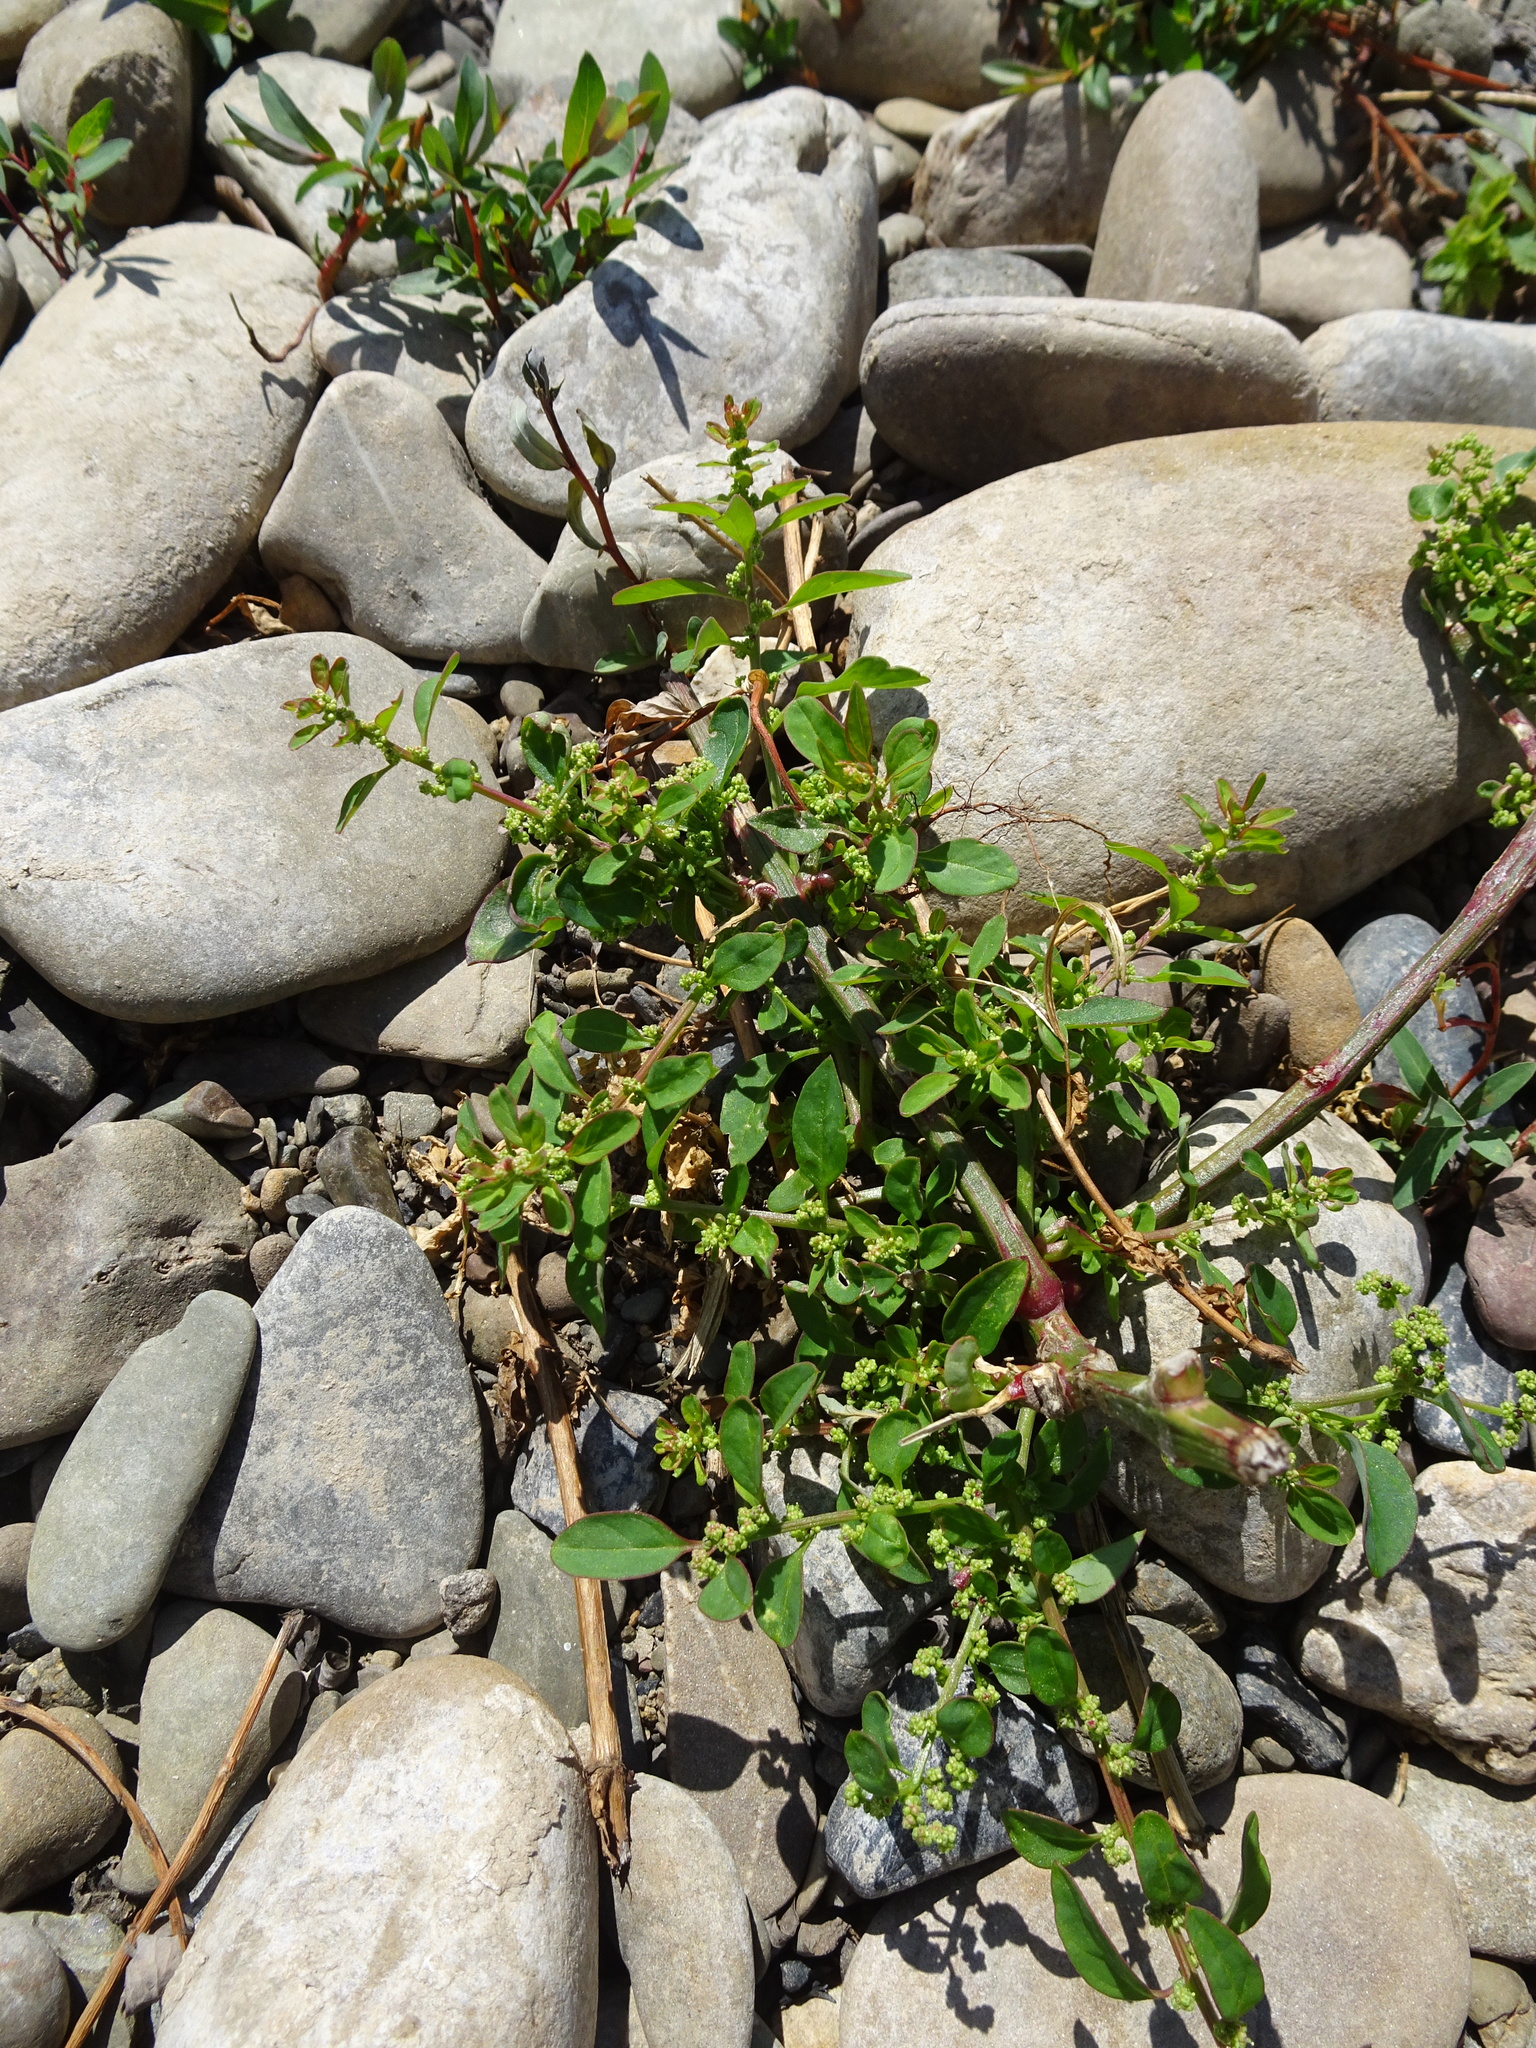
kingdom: Plantae
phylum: Tracheophyta
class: Magnoliopsida
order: Caryophyllales
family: Amaranthaceae
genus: Lipandra
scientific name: Lipandra polysperma
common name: Many-seed goosefoot
